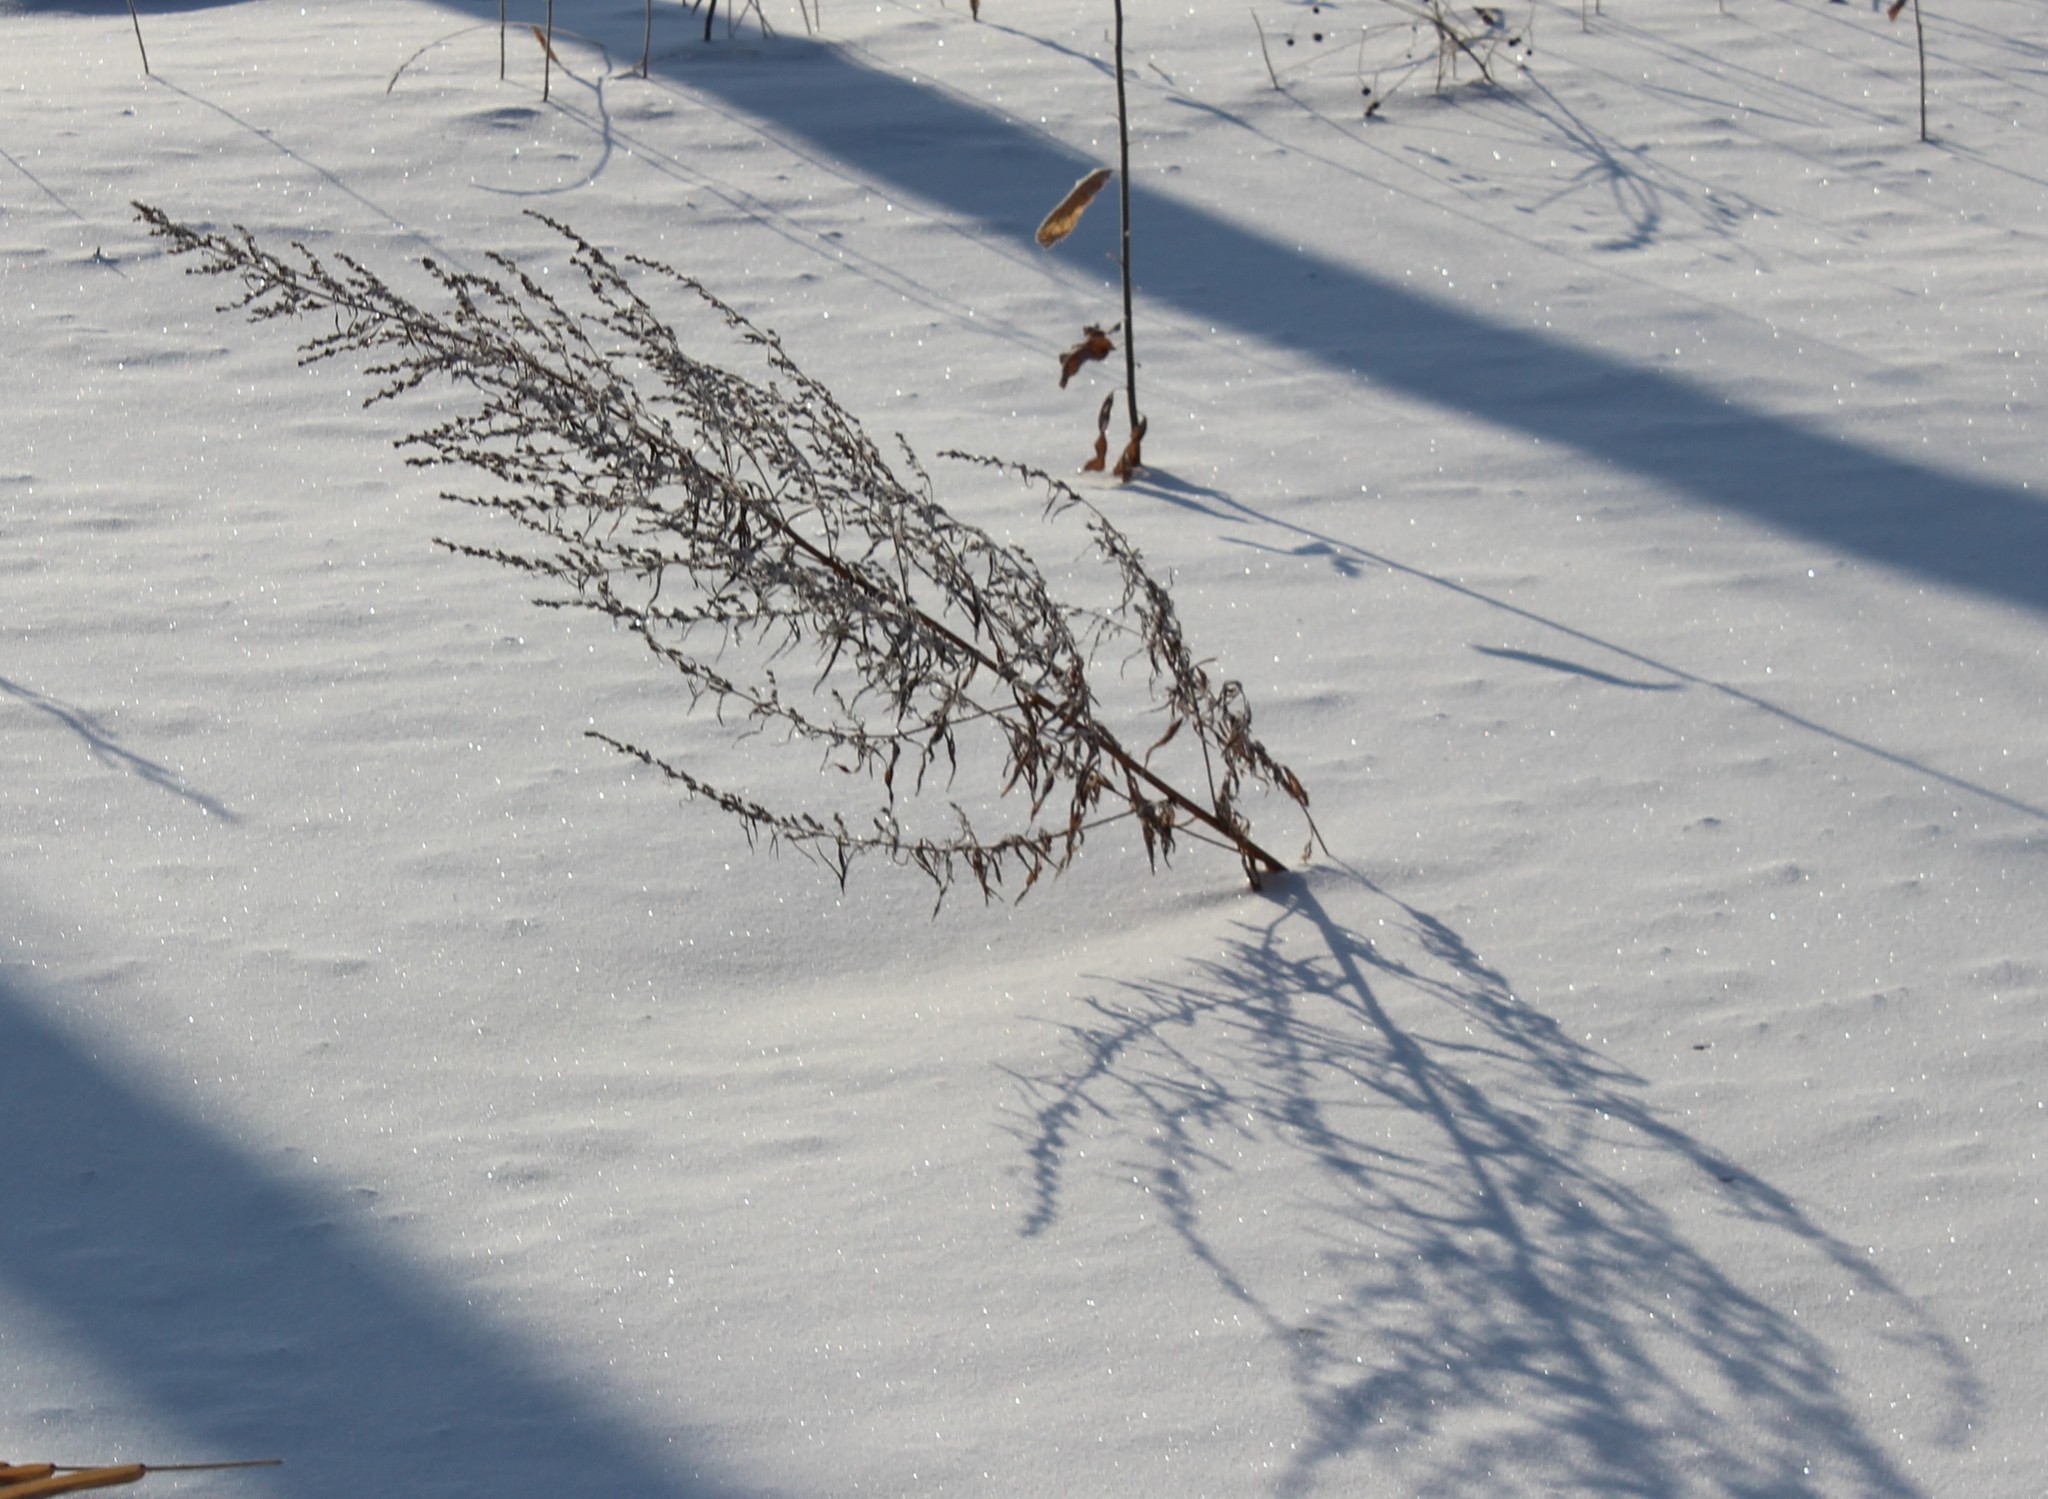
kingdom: Plantae
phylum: Tracheophyta
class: Magnoliopsida
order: Asterales
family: Asteraceae
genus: Artemisia
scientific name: Artemisia vulgaris
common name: Mugwort
